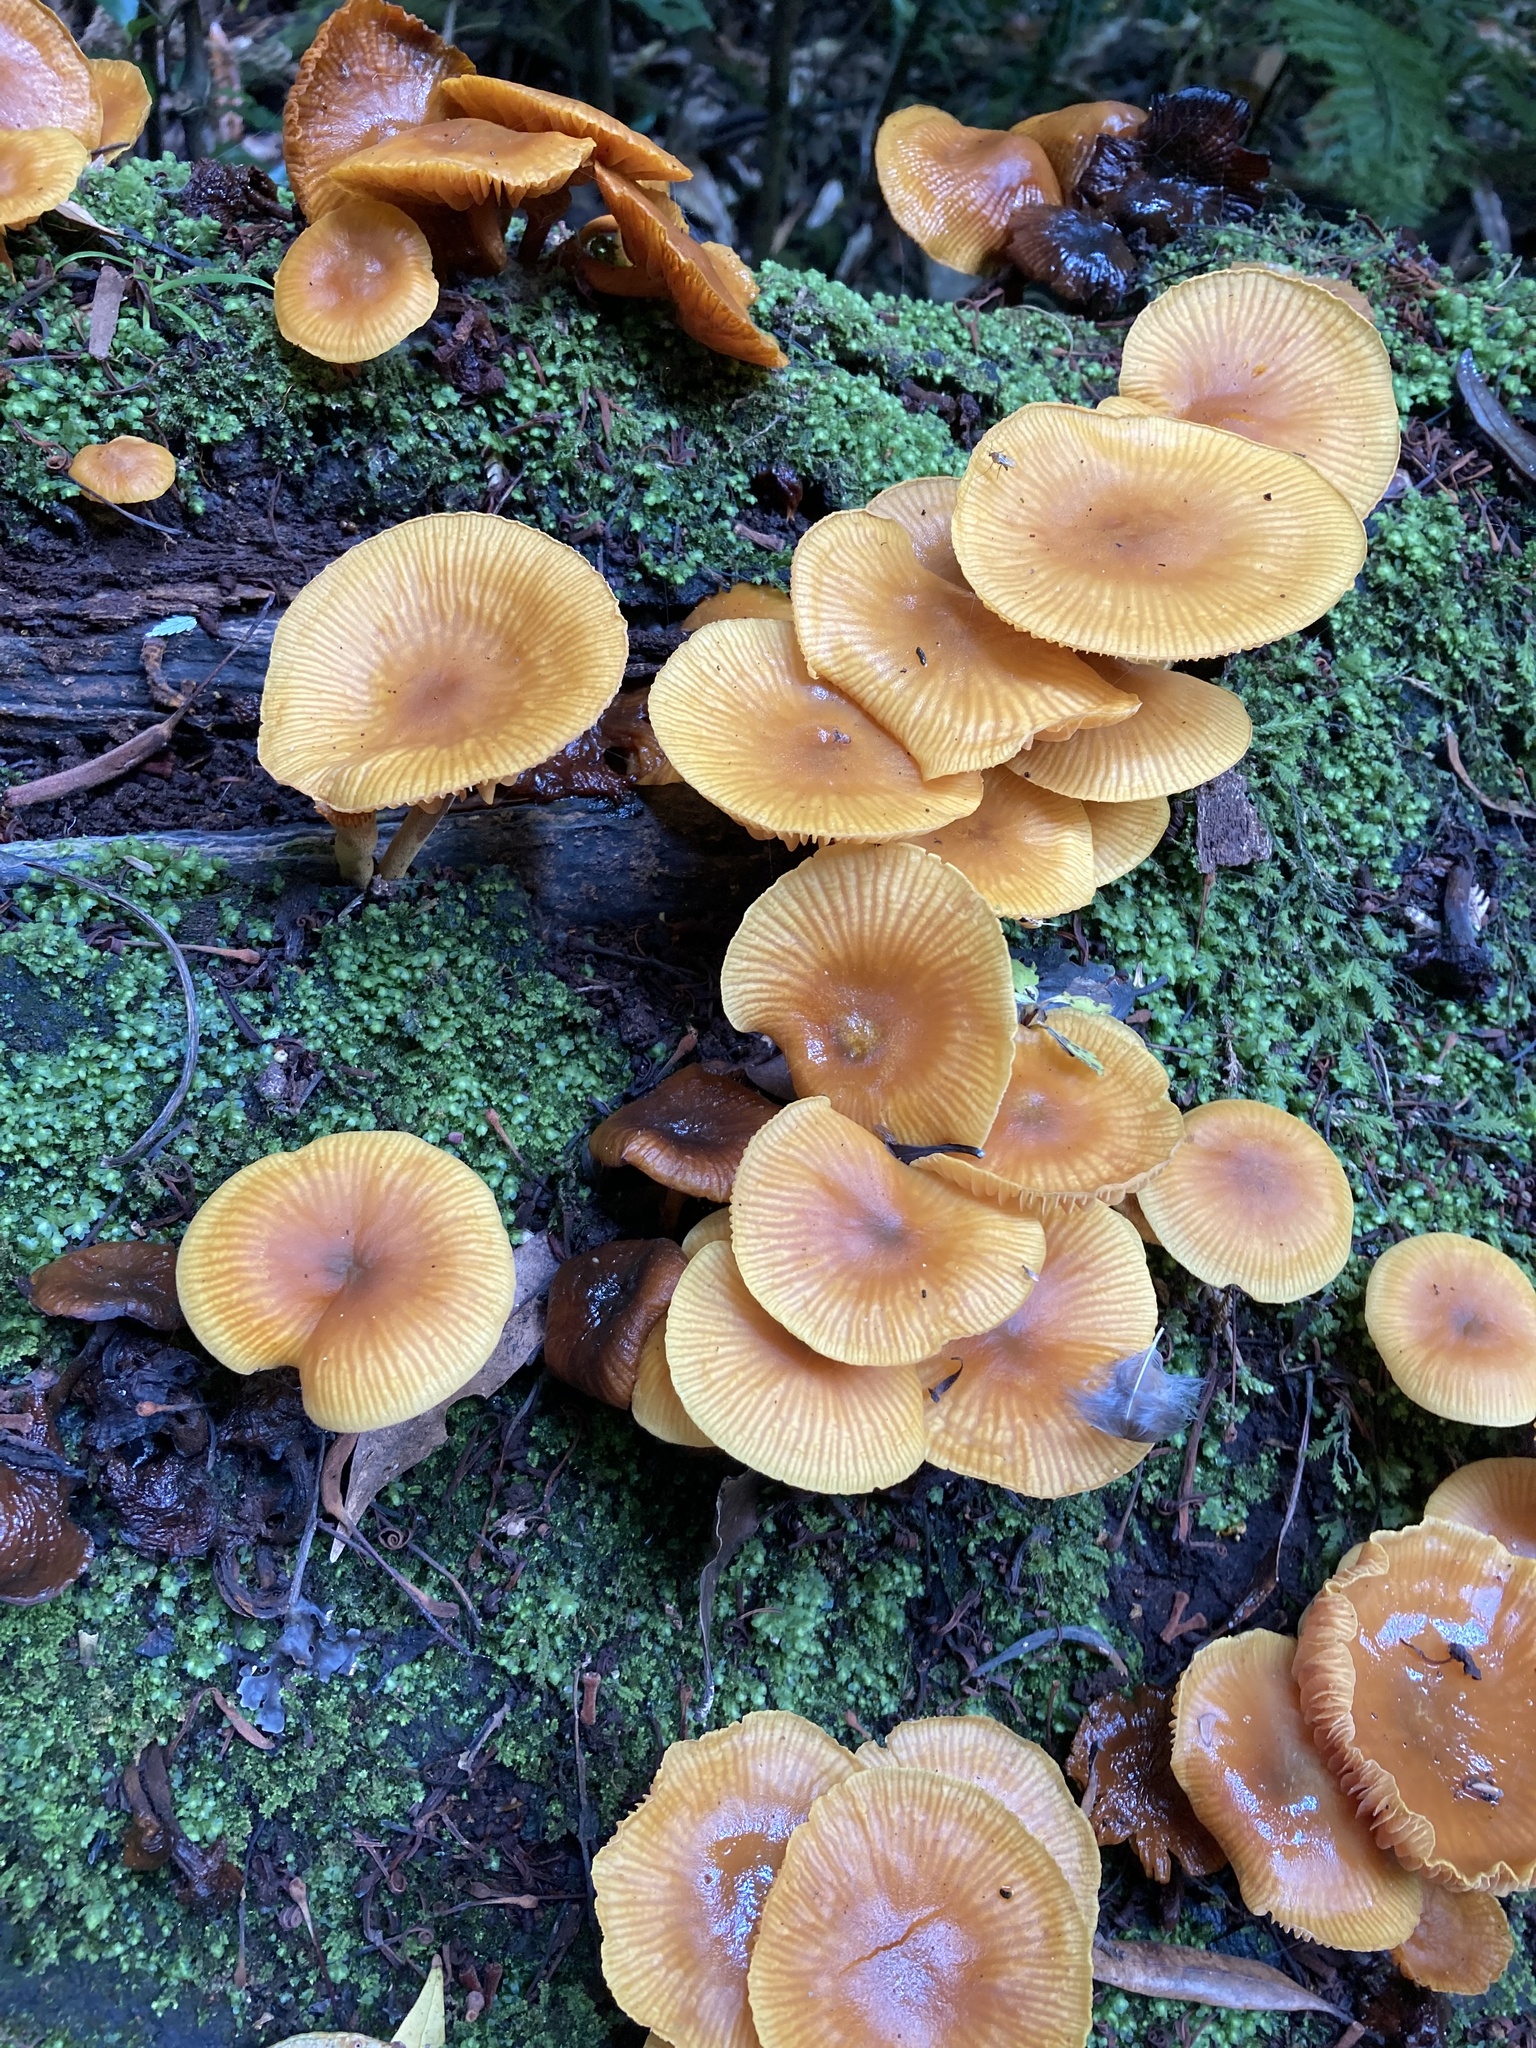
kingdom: Fungi
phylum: Basidiomycota
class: Agaricomycetes
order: Agaricales
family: Mycenaceae
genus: Heimiomyces
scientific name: Heimiomyces velutipes
